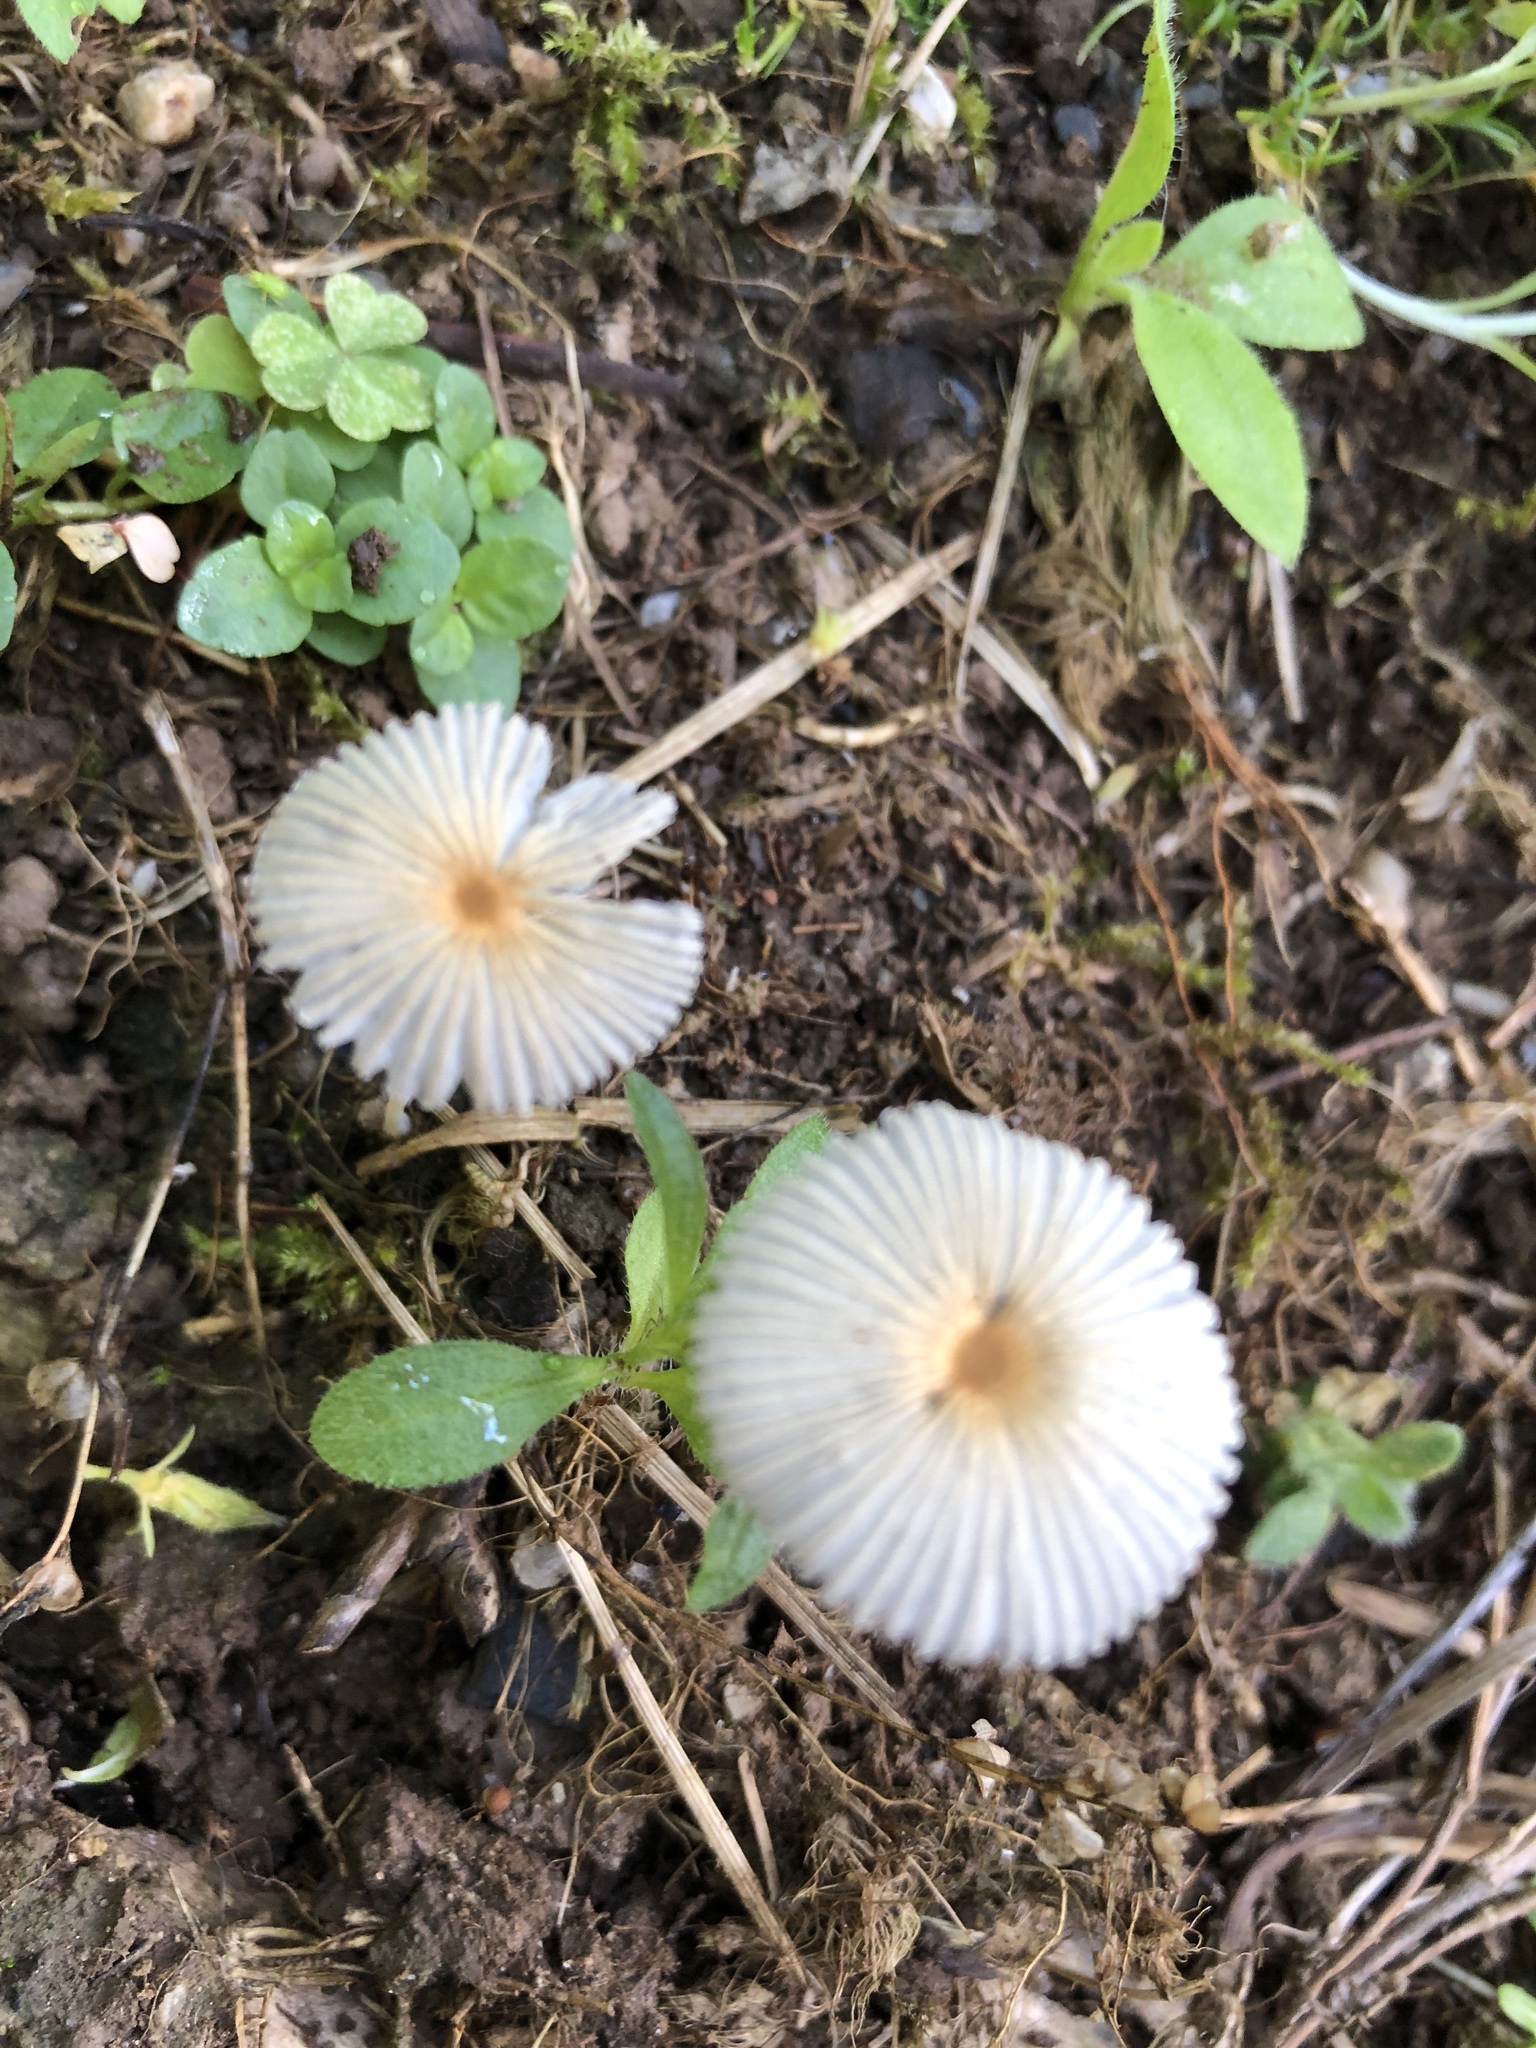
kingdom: Fungi
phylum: Basidiomycota
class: Agaricomycetes
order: Agaricales
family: Psathyrellaceae
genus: Parasola
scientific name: Parasola plicatilis
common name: Pleated inkcap
